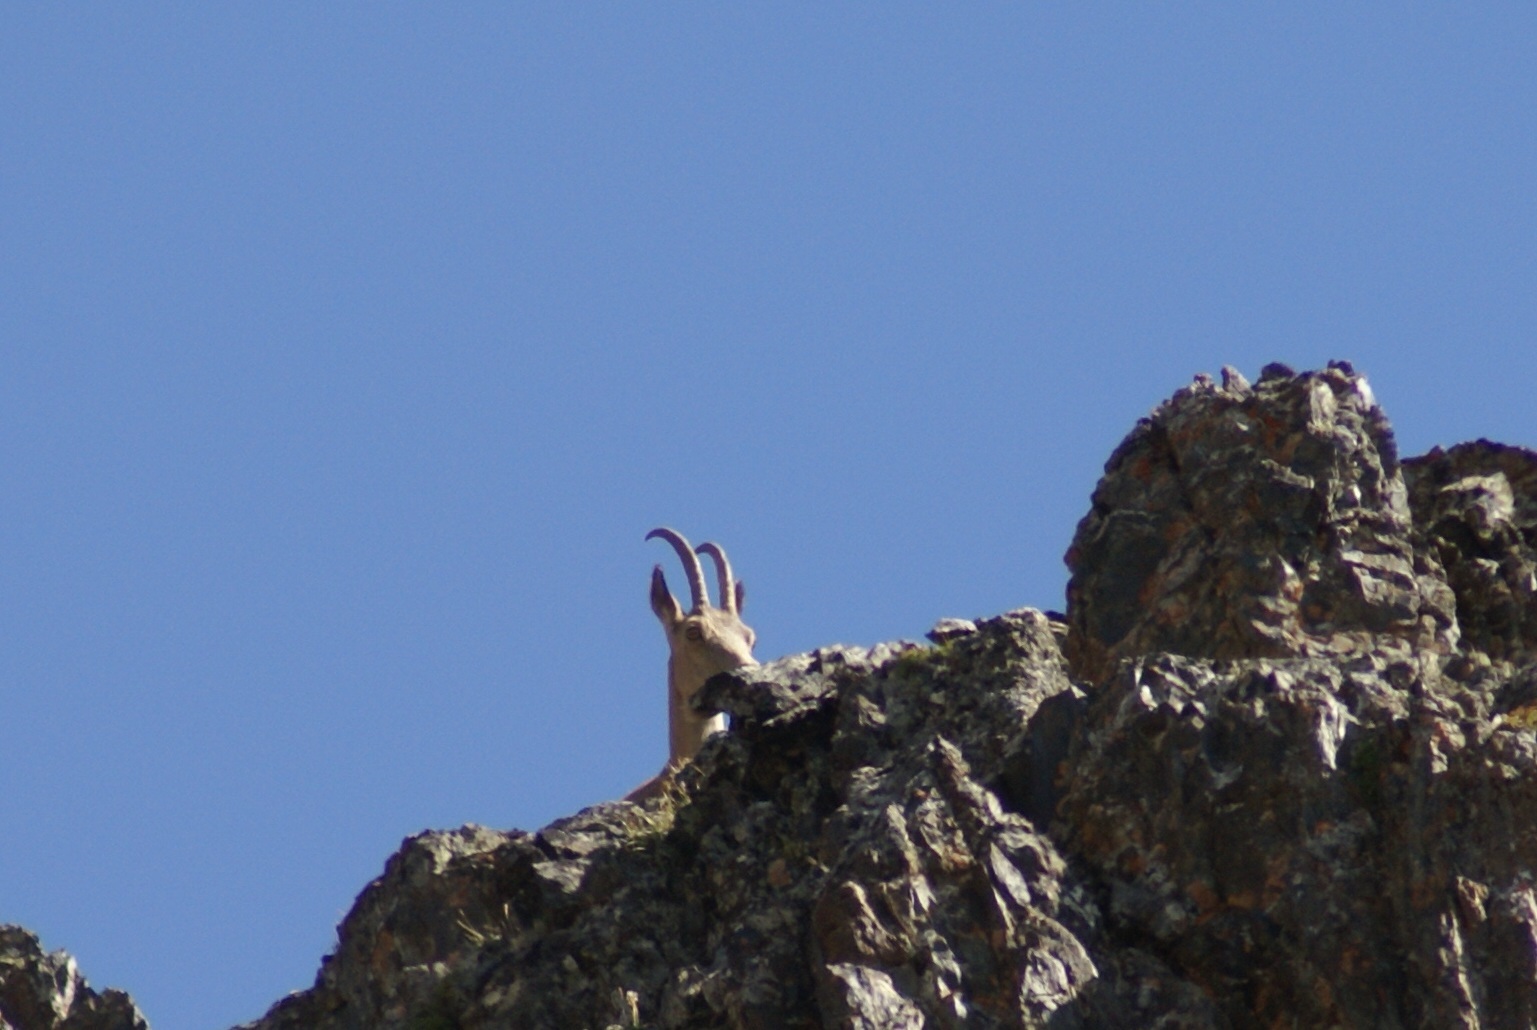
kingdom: Animalia
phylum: Chordata
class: Mammalia
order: Artiodactyla
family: Bovidae
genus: Capra
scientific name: Capra sibirica
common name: Siberian ibex
